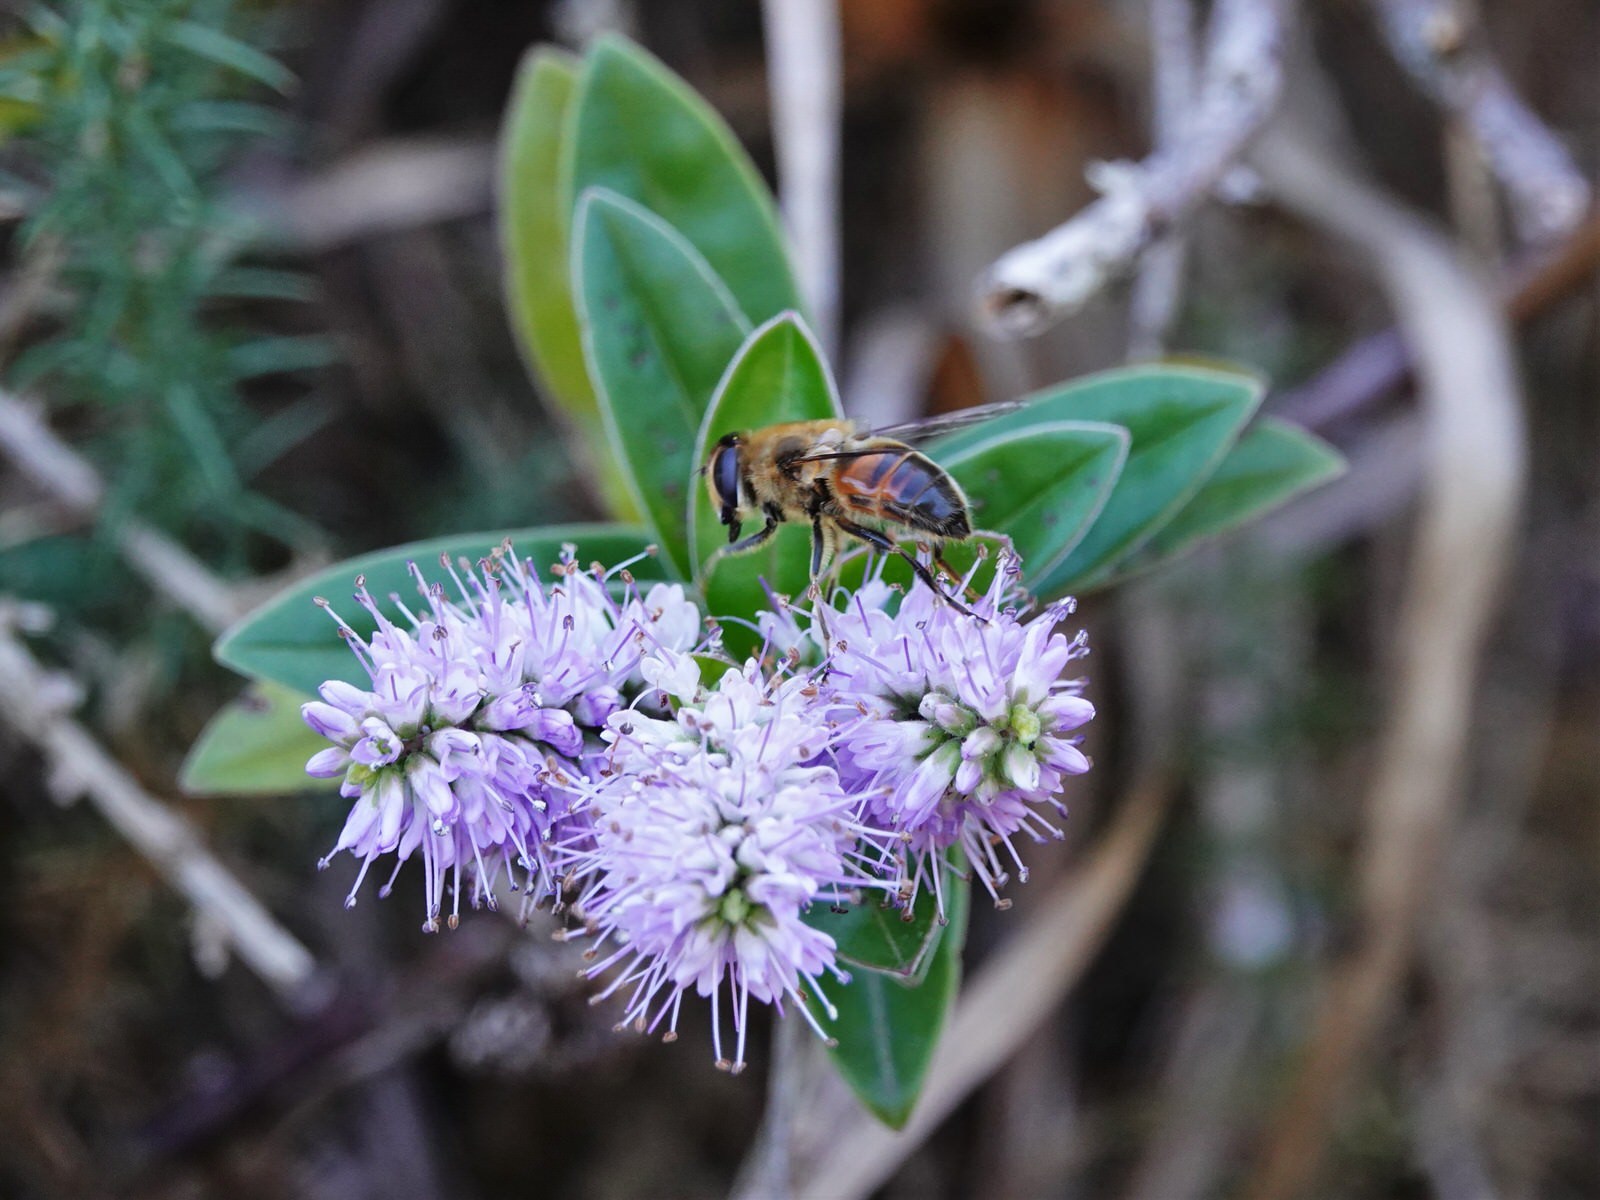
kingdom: Animalia
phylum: Arthropoda
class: Insecta
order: Diptera
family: Syrphidae
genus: Eristalis
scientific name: Eristalis tenax
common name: Drone fly
